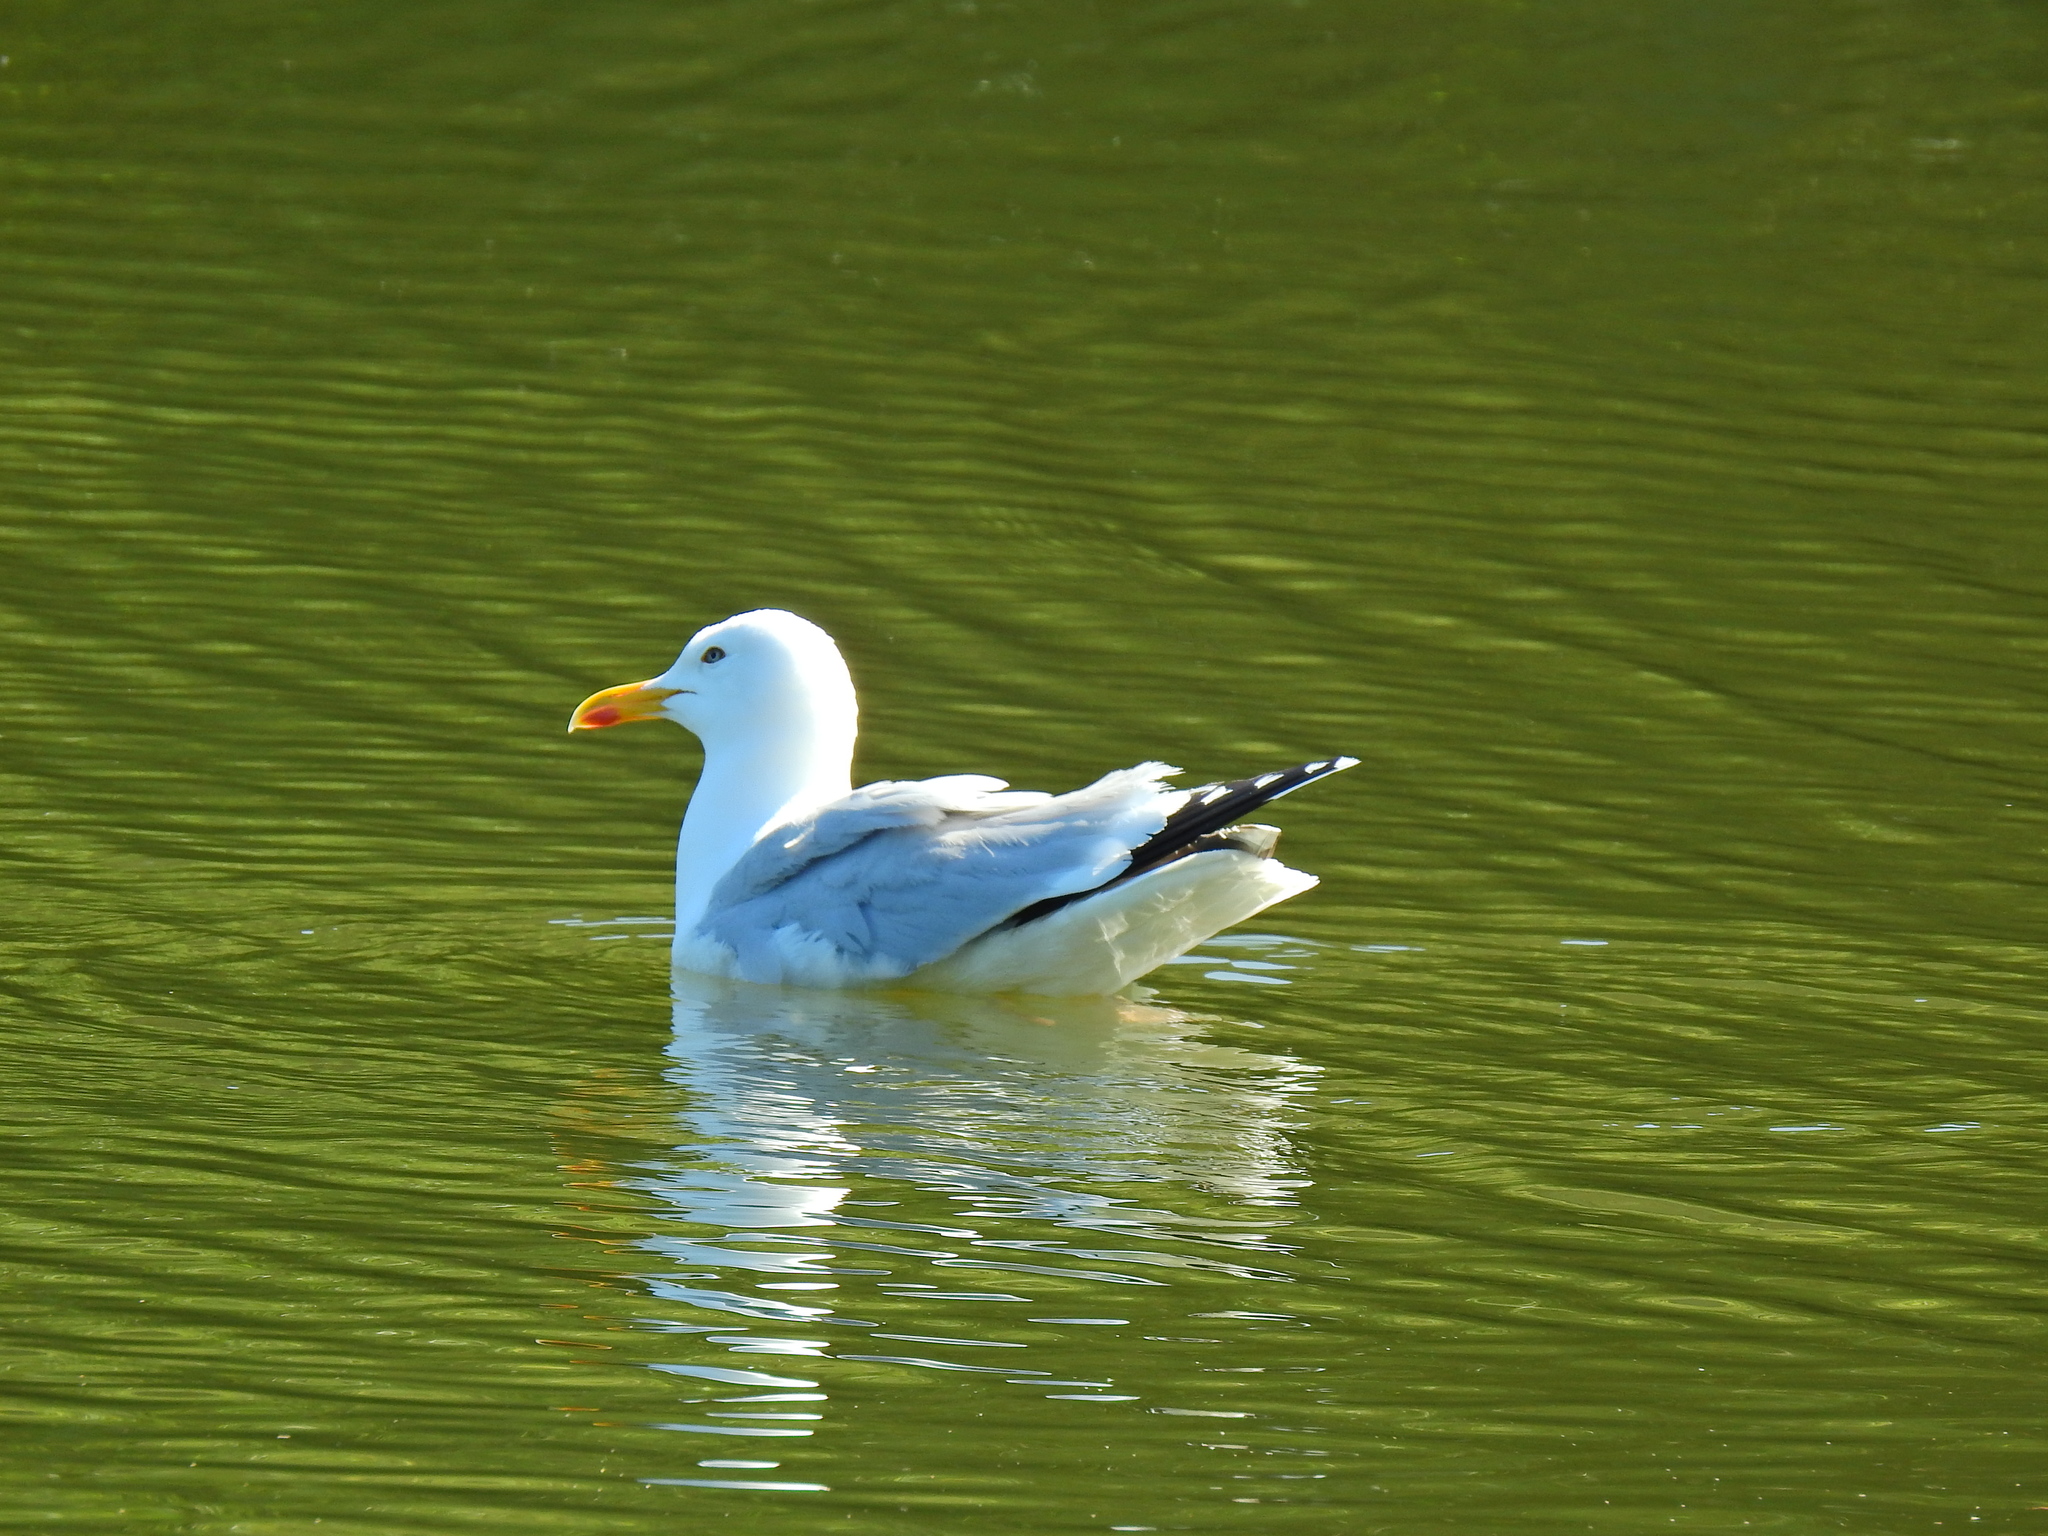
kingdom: Animalia
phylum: Chordata
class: Aves
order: Charadriiformes
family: Laridae
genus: Larus
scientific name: Larus argentatus
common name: Herring gull
